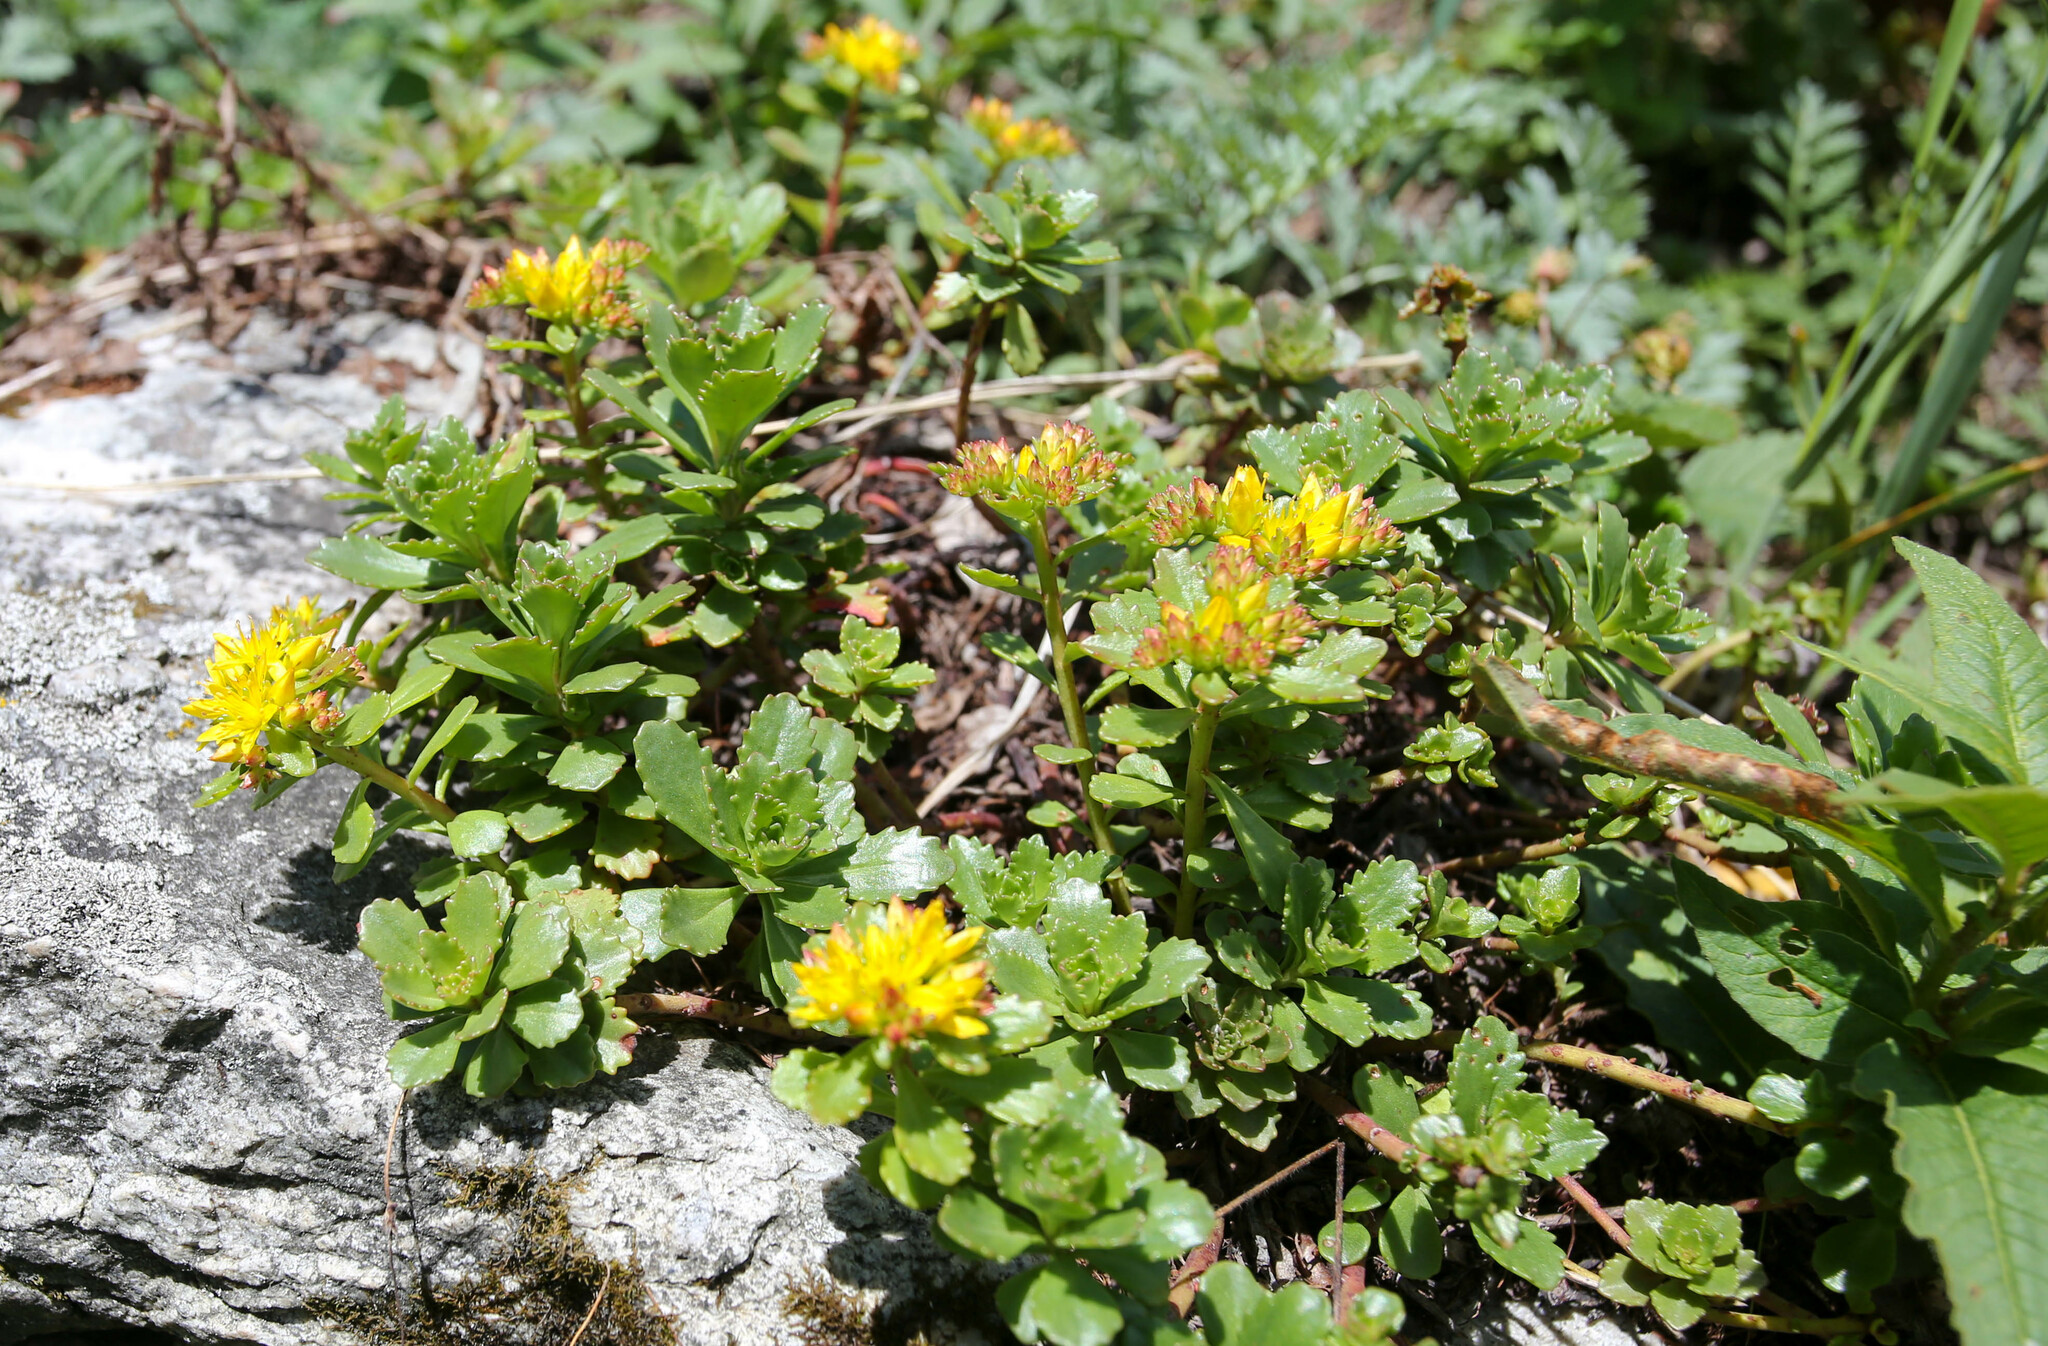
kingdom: Plantae
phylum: Tracheophyta
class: Magnoliopsida
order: Saxifragales
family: Crassulaceae
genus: Phedimus
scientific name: Phedimus hybridus
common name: Hybrid stonecrop
